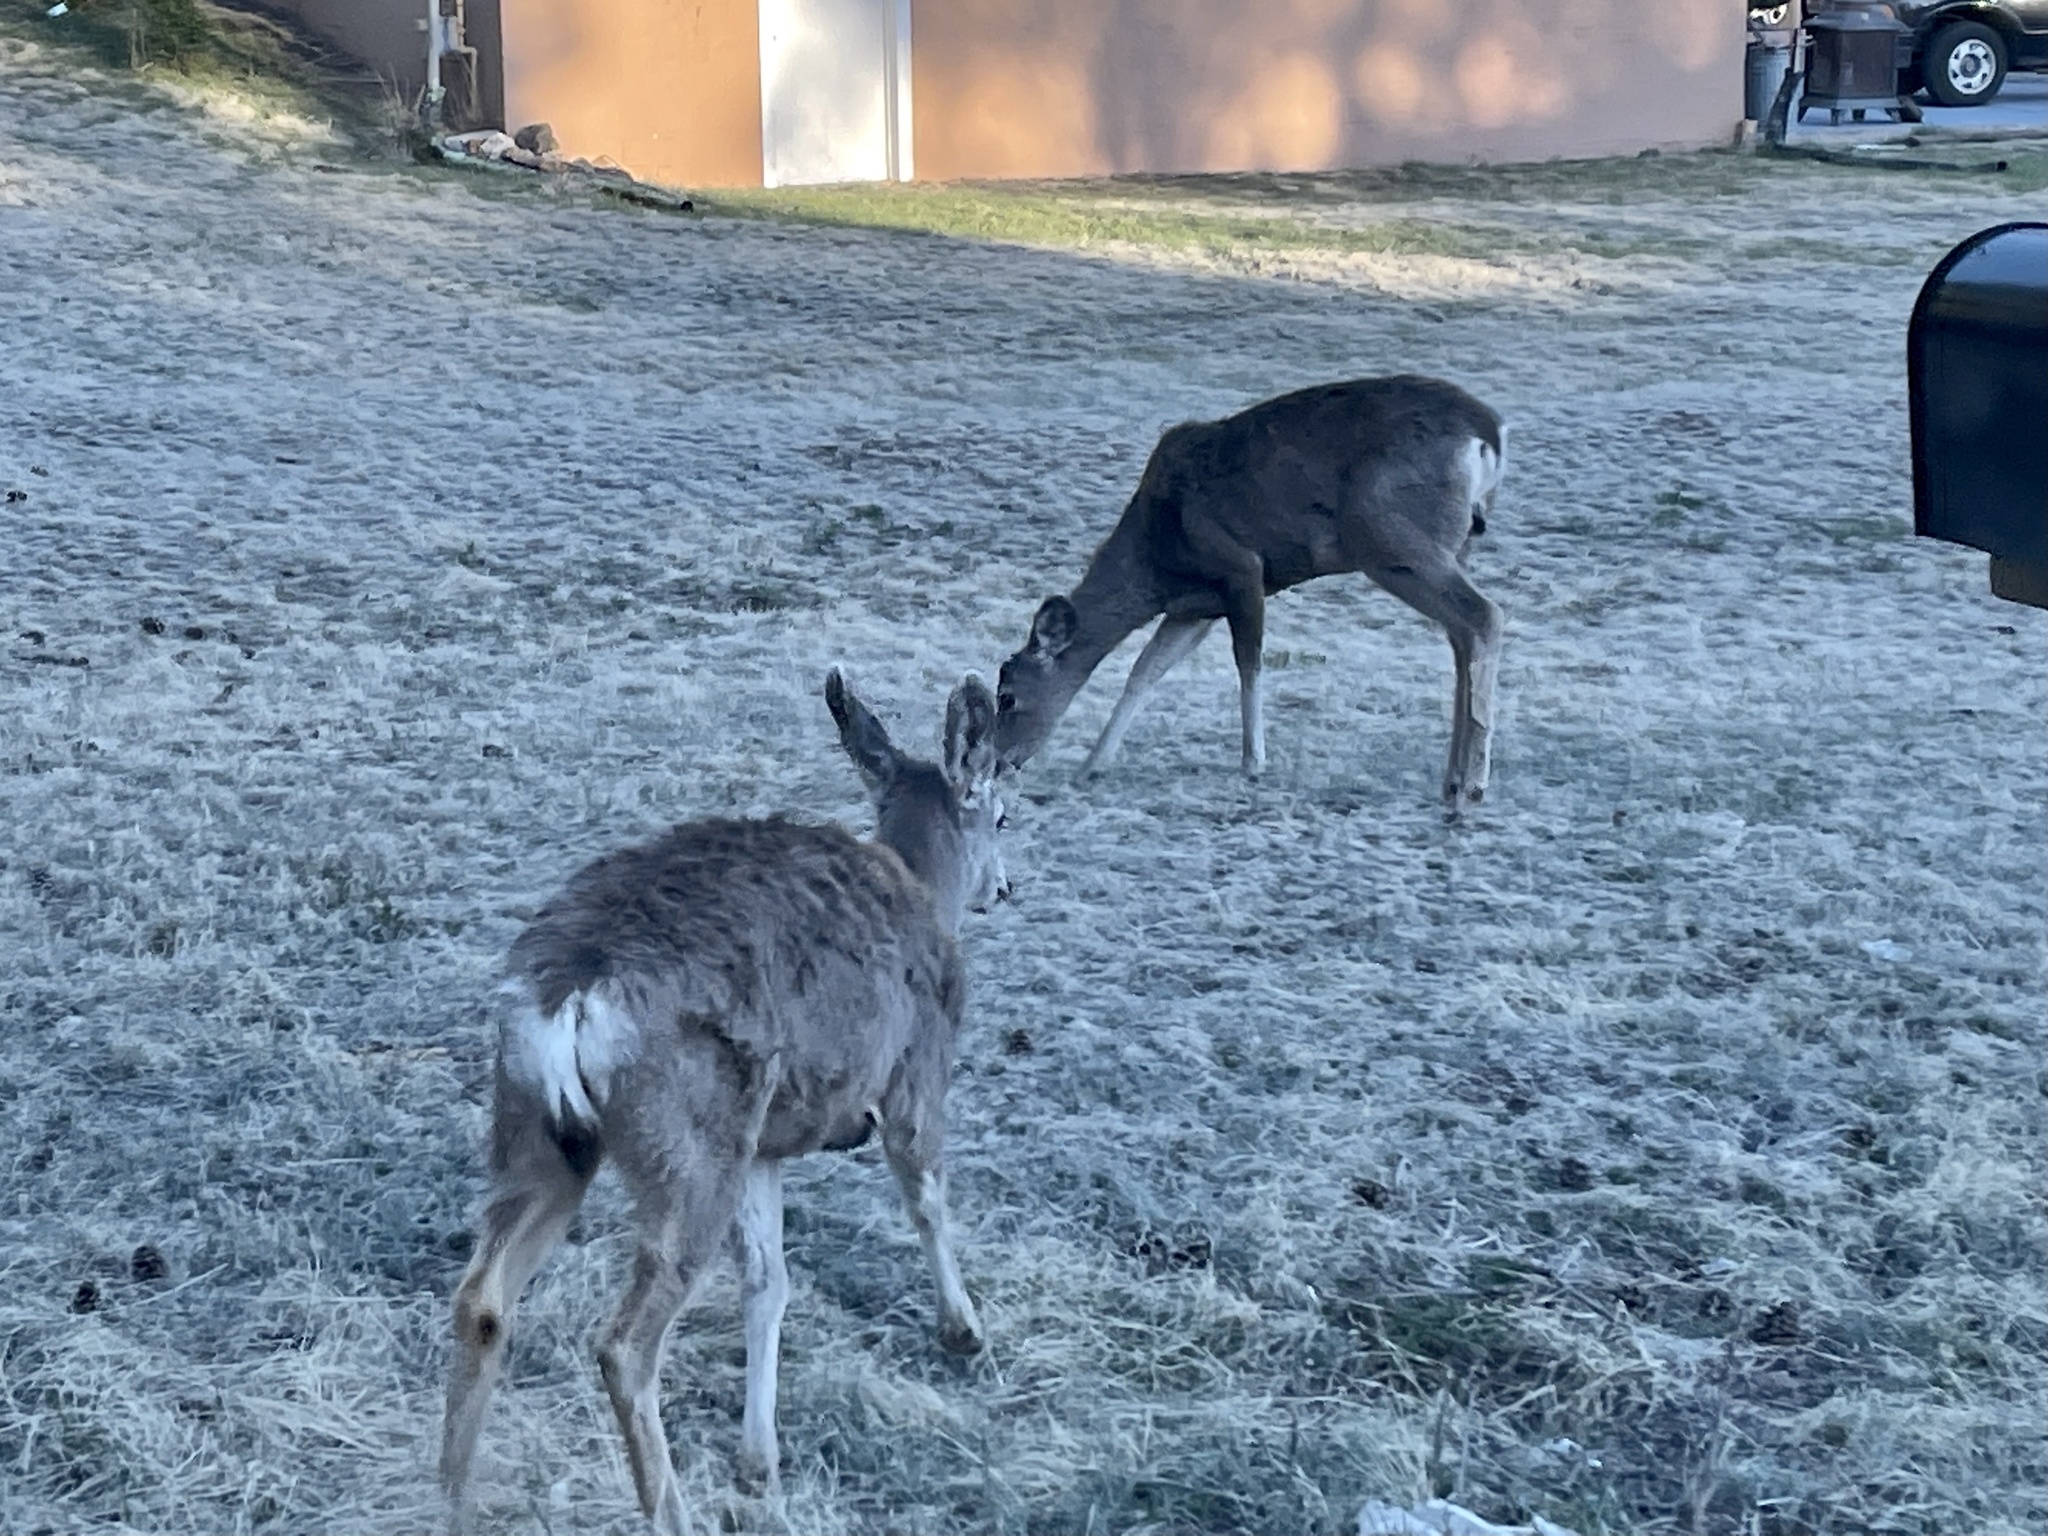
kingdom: Animalia
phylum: Chordata
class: Mammalia
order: Artiodactyla
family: Cervidae
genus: Odocoileus
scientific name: Odocoileus hemionus
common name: Mule deer
